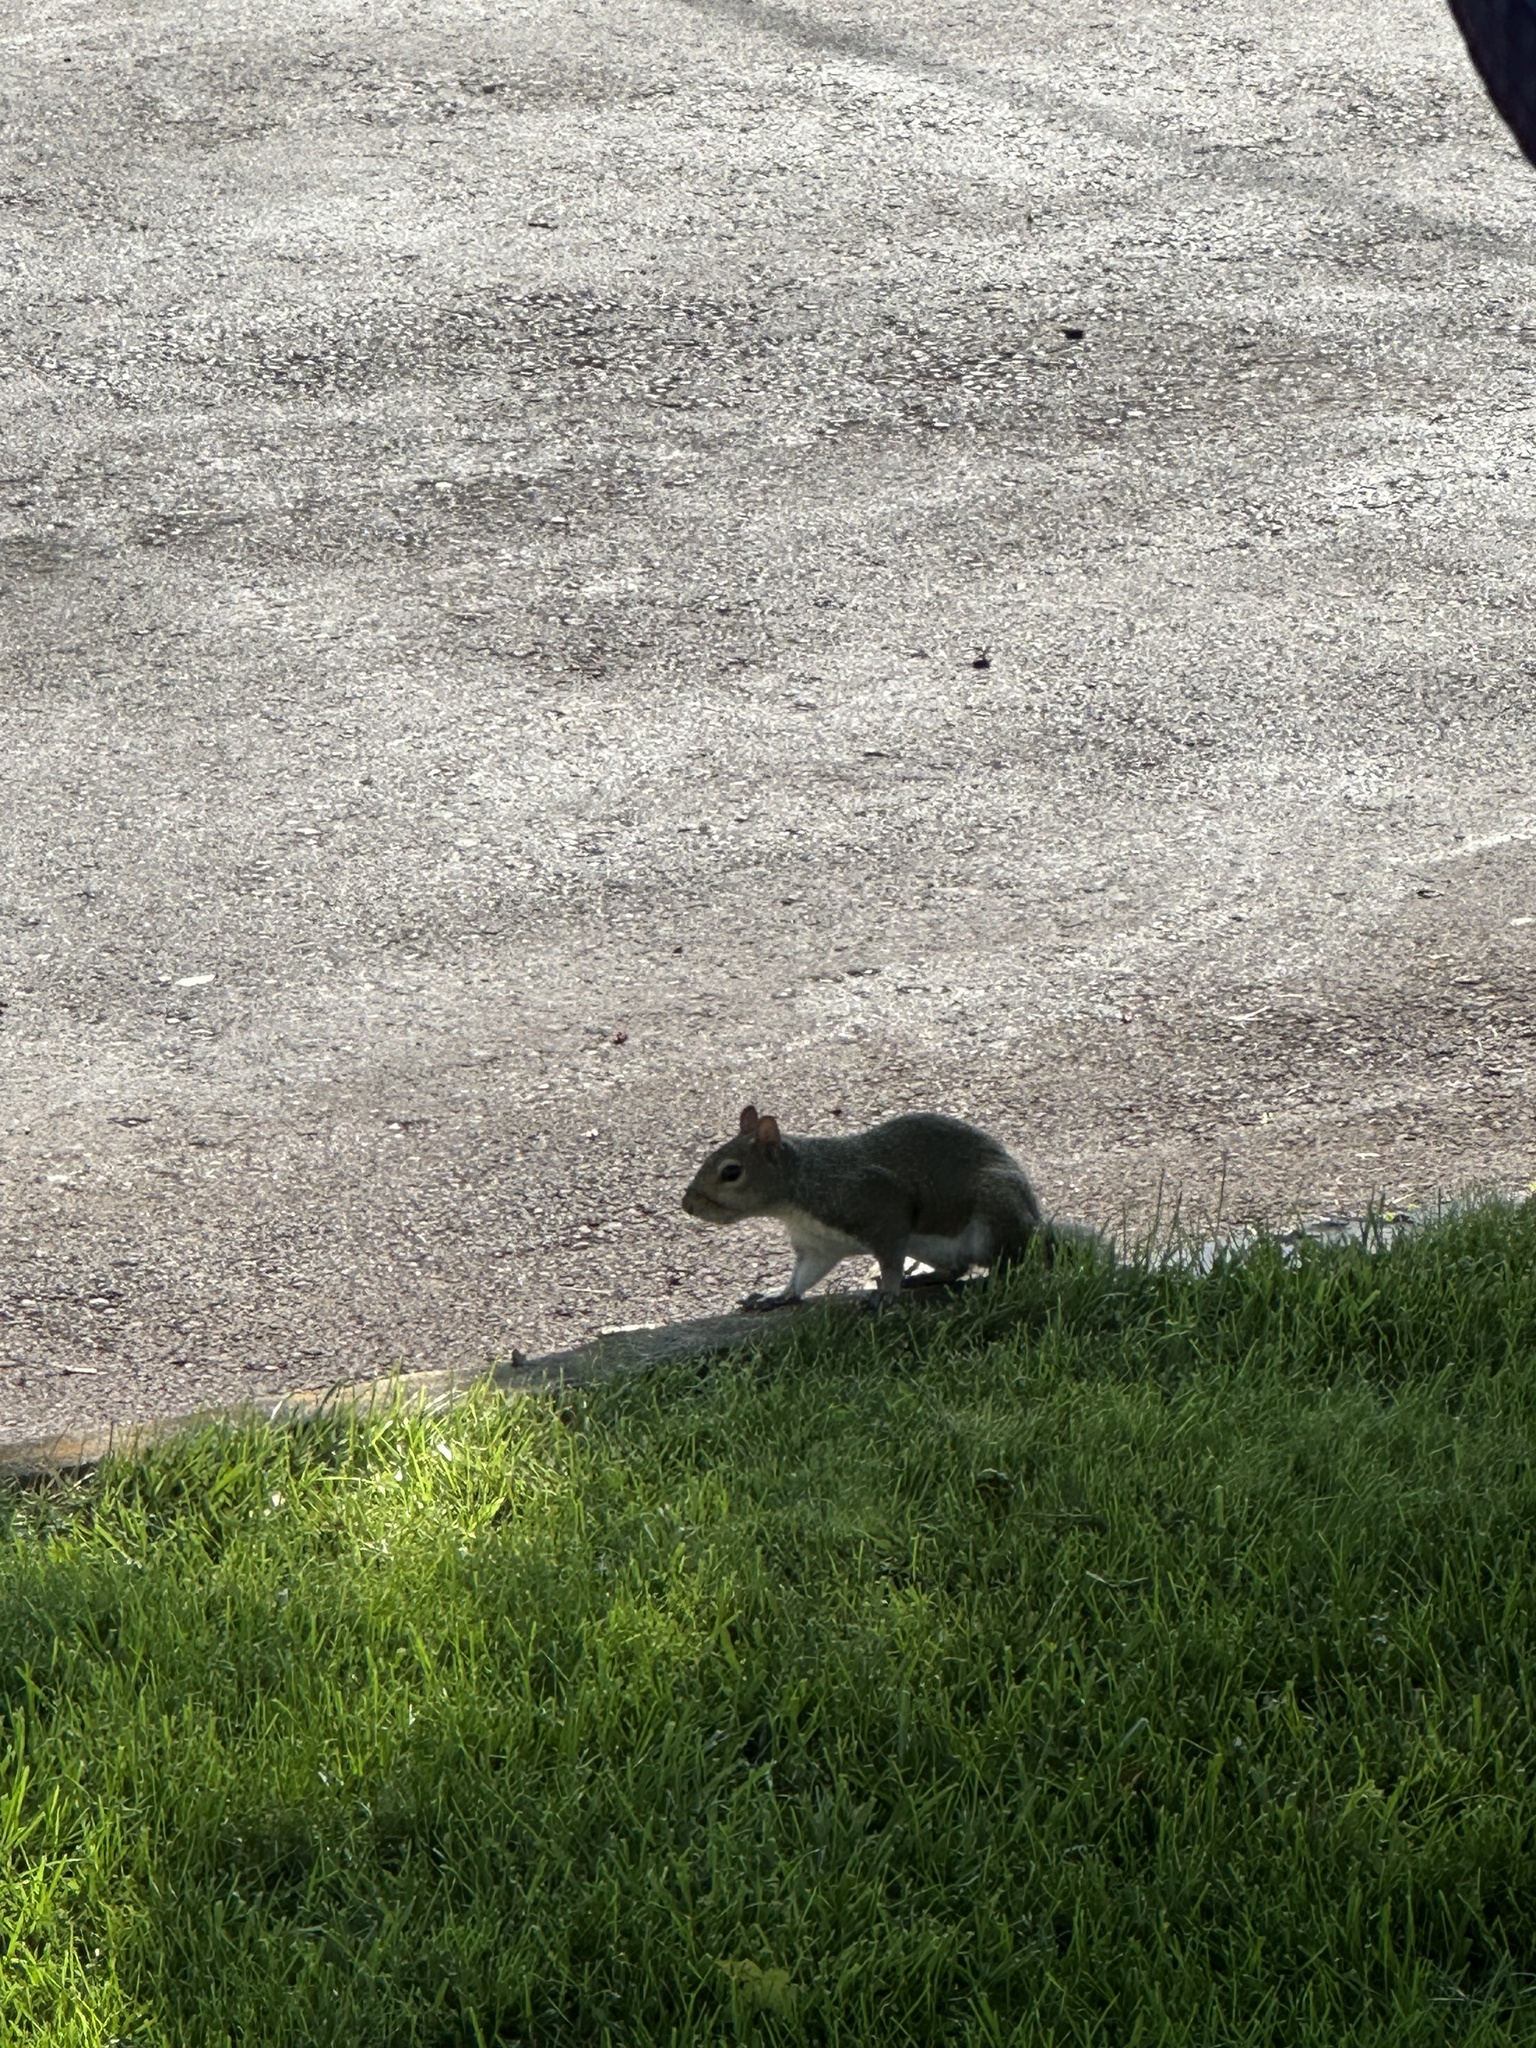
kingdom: Animalia
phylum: Chordata
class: Mammalia
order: Rodentia
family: Sciuridae
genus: Sciurus
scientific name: Sciurus carolinensis
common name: Eastern gray squirrel
